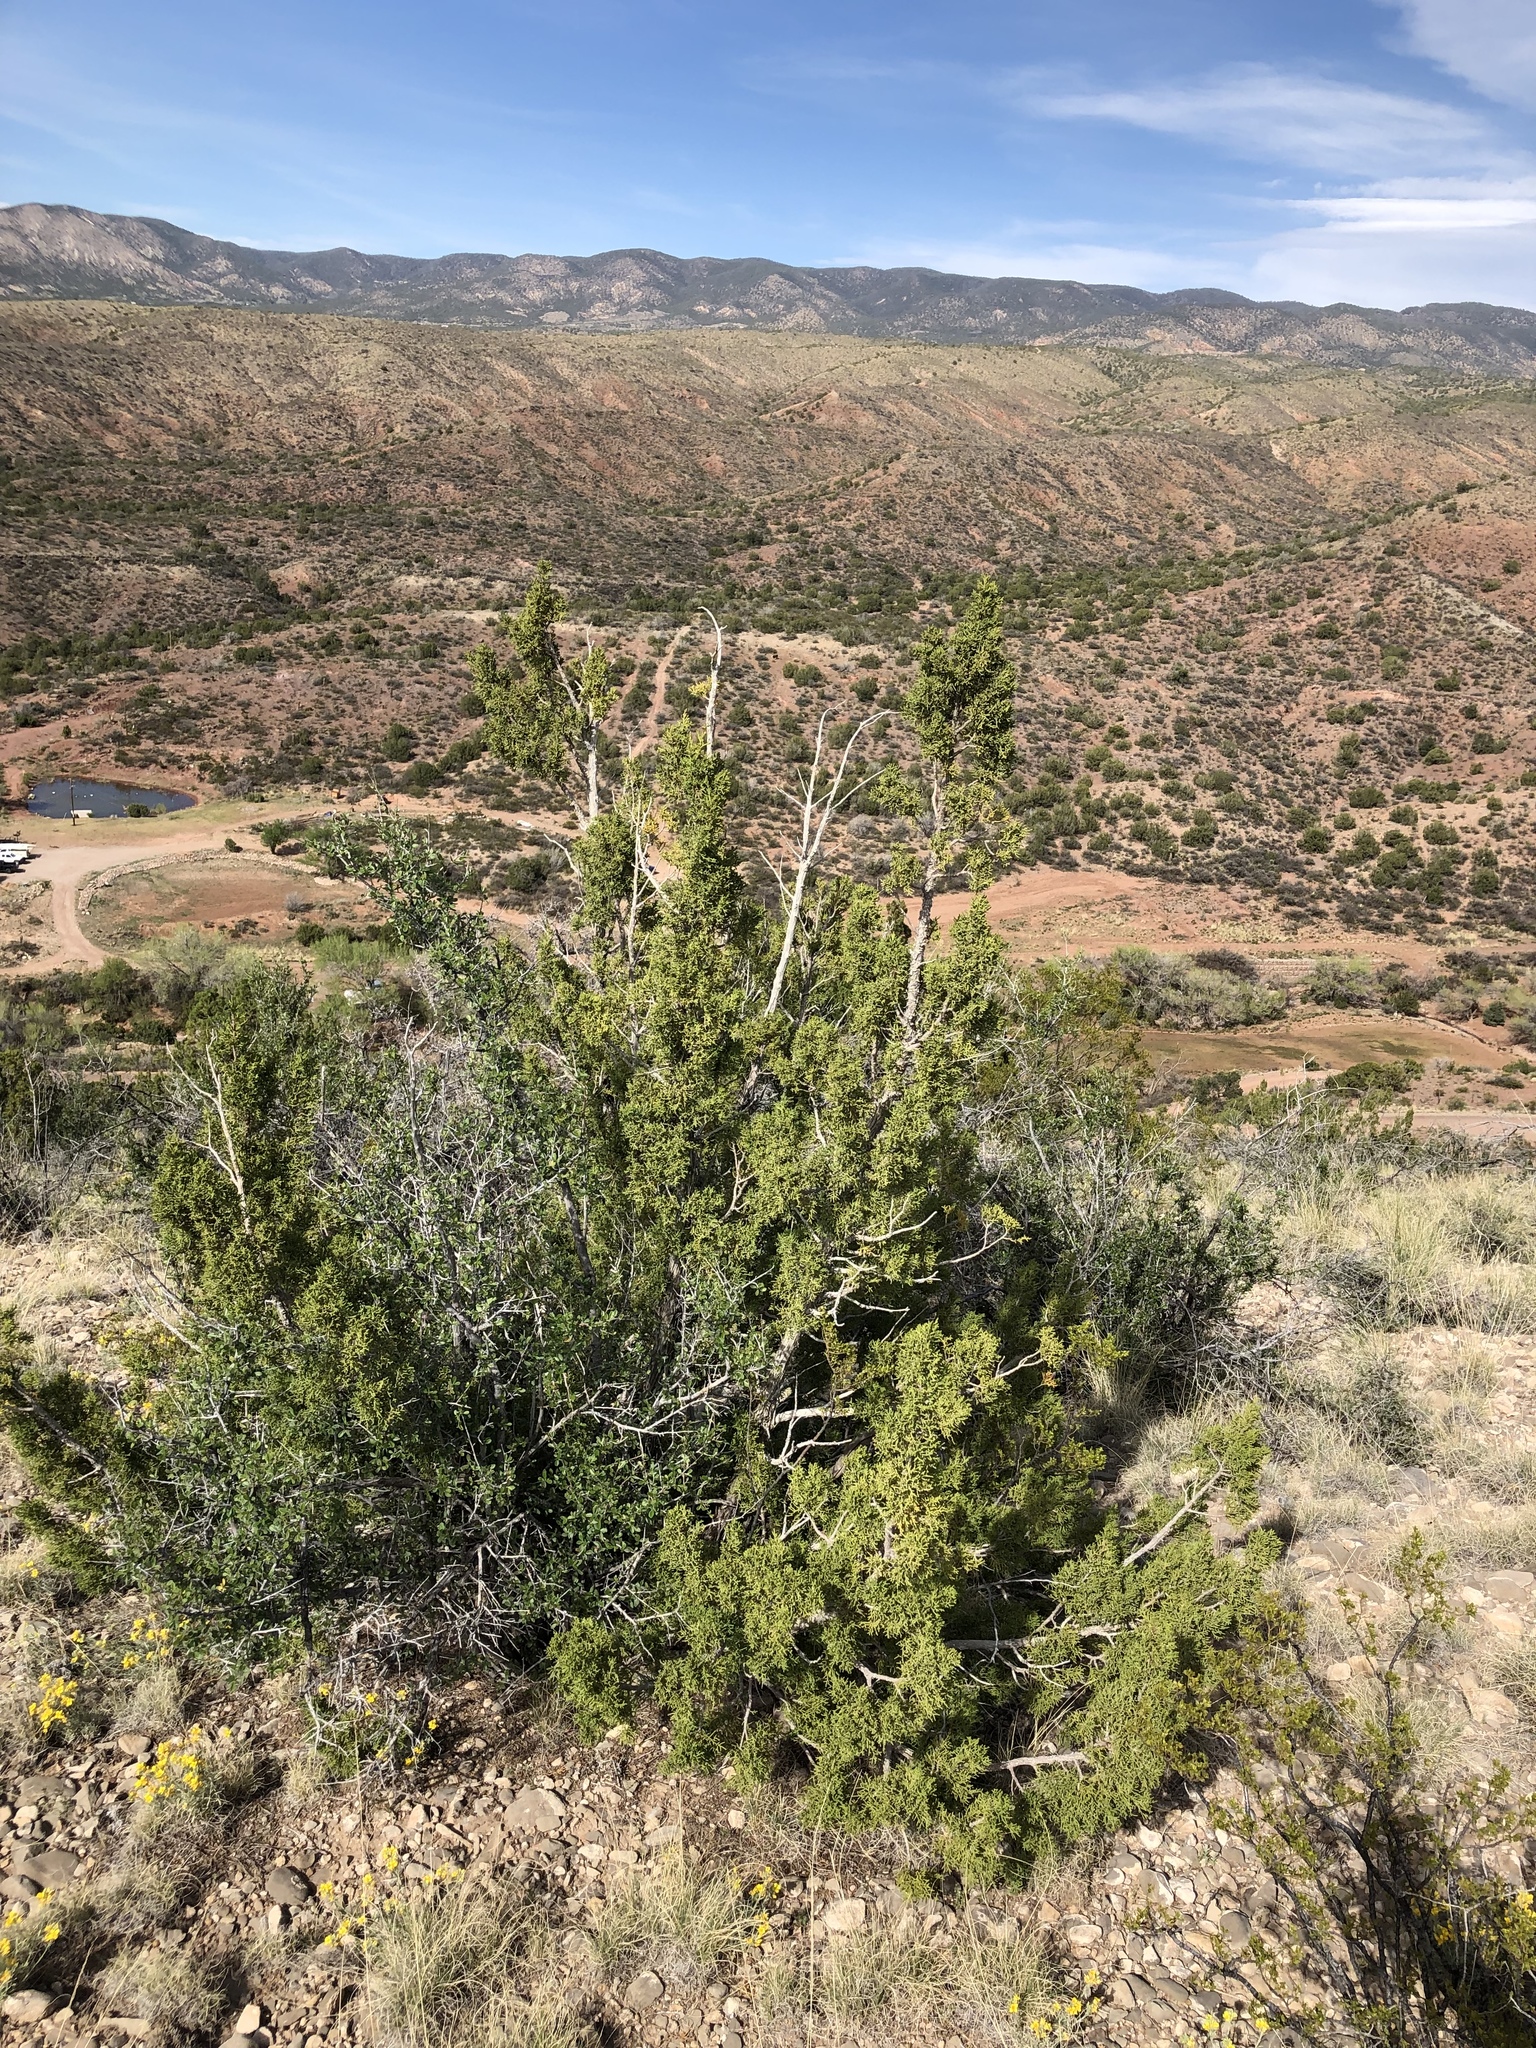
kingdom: Plantae
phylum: Tracheophyta
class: Pinopsida
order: Pinales
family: Cupressaceae
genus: Juniperus
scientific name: Juniperus monosperma
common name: One-seed juniper
